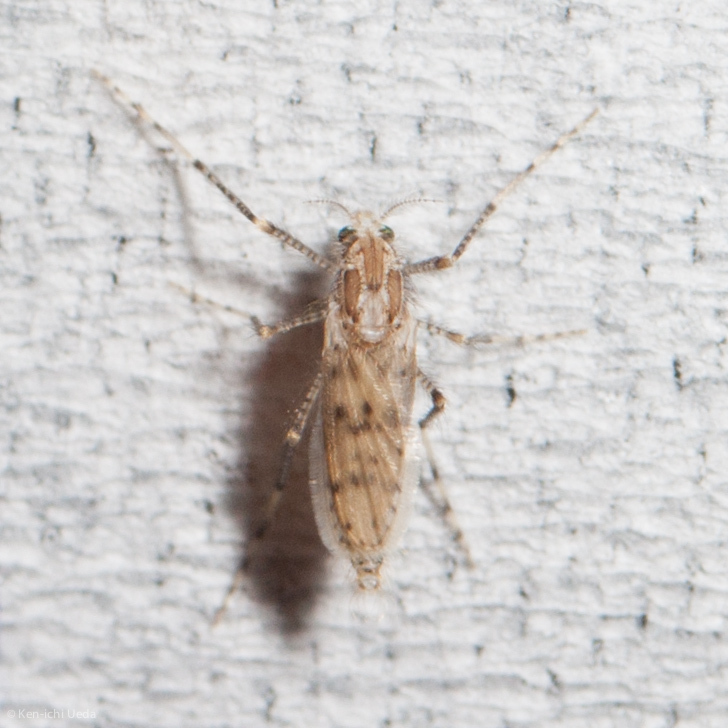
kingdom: Animalia
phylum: Arthropoda
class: Insecta
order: Diptera
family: Chaoboridae
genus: Chaoborus
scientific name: Chaoborus punctipennis
